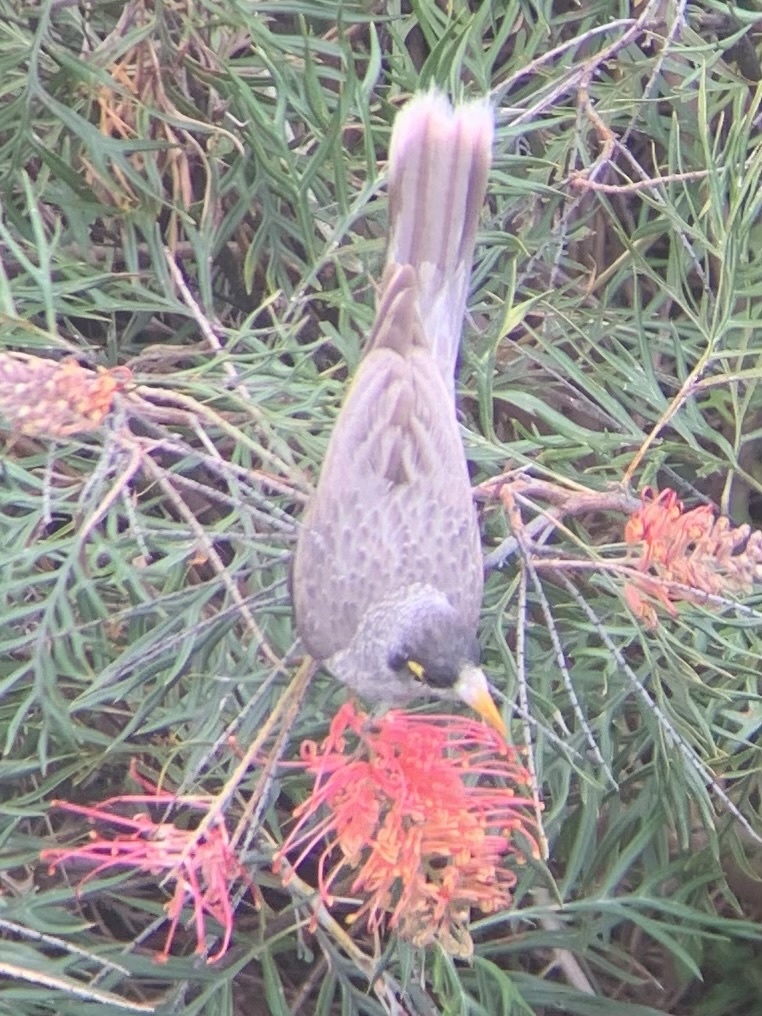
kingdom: Animalia
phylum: Chordata
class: Aves
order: Passeriformes
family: Meliphagidae
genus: Manorina
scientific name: Manorina melanocephala
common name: Noisy miner
